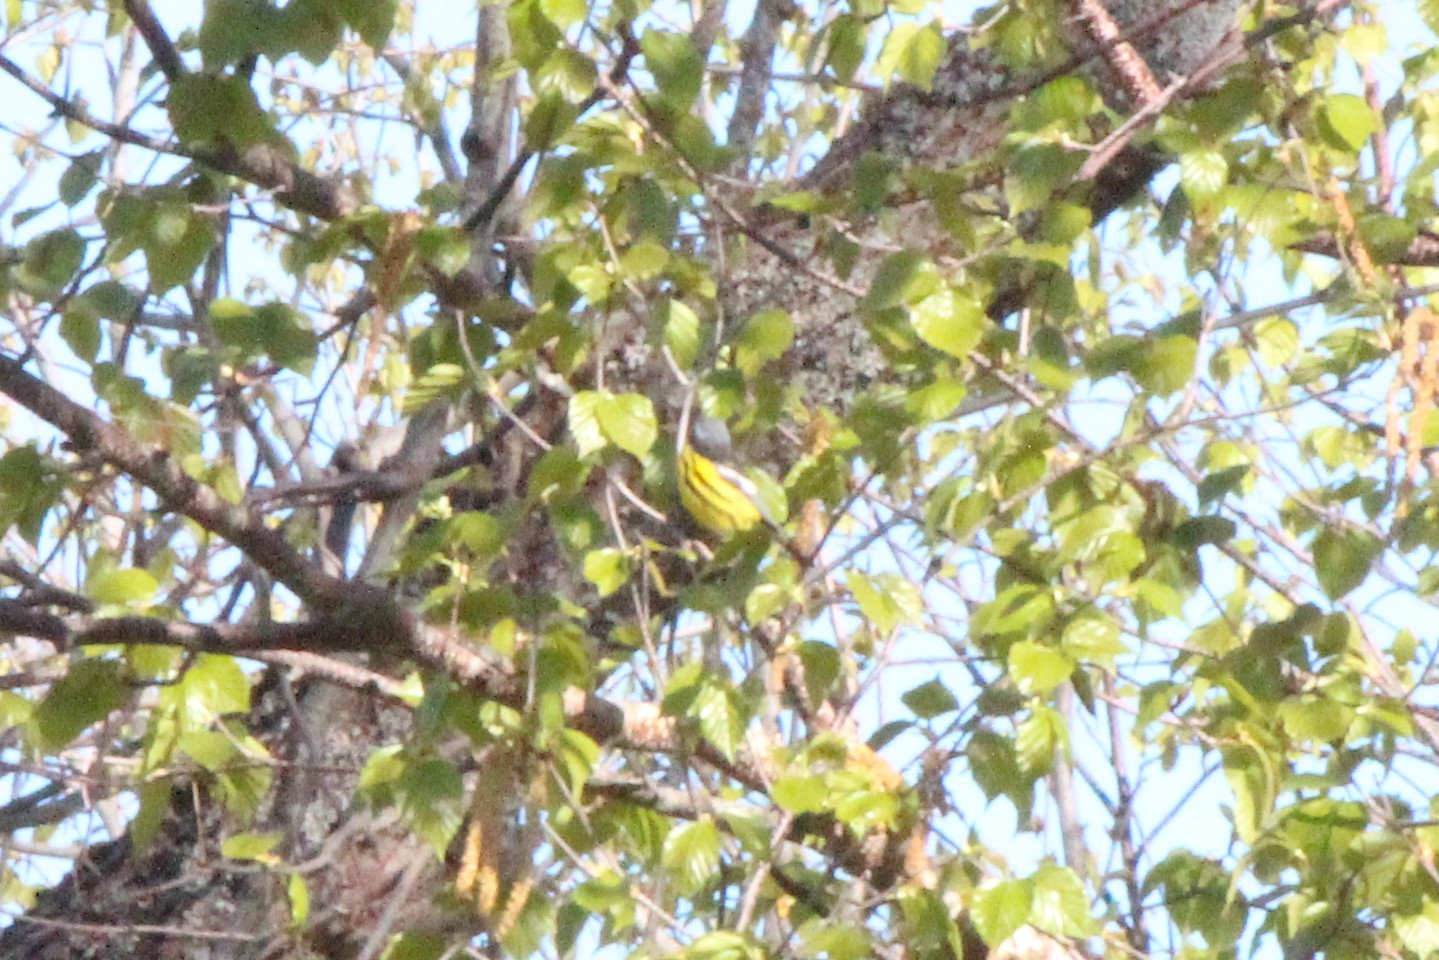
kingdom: Animalia
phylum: Chordata
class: Aves
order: Passeriformes
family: Parulidae
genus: Setophaga
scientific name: Setophaga magnolia
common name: Magnolia warbler
